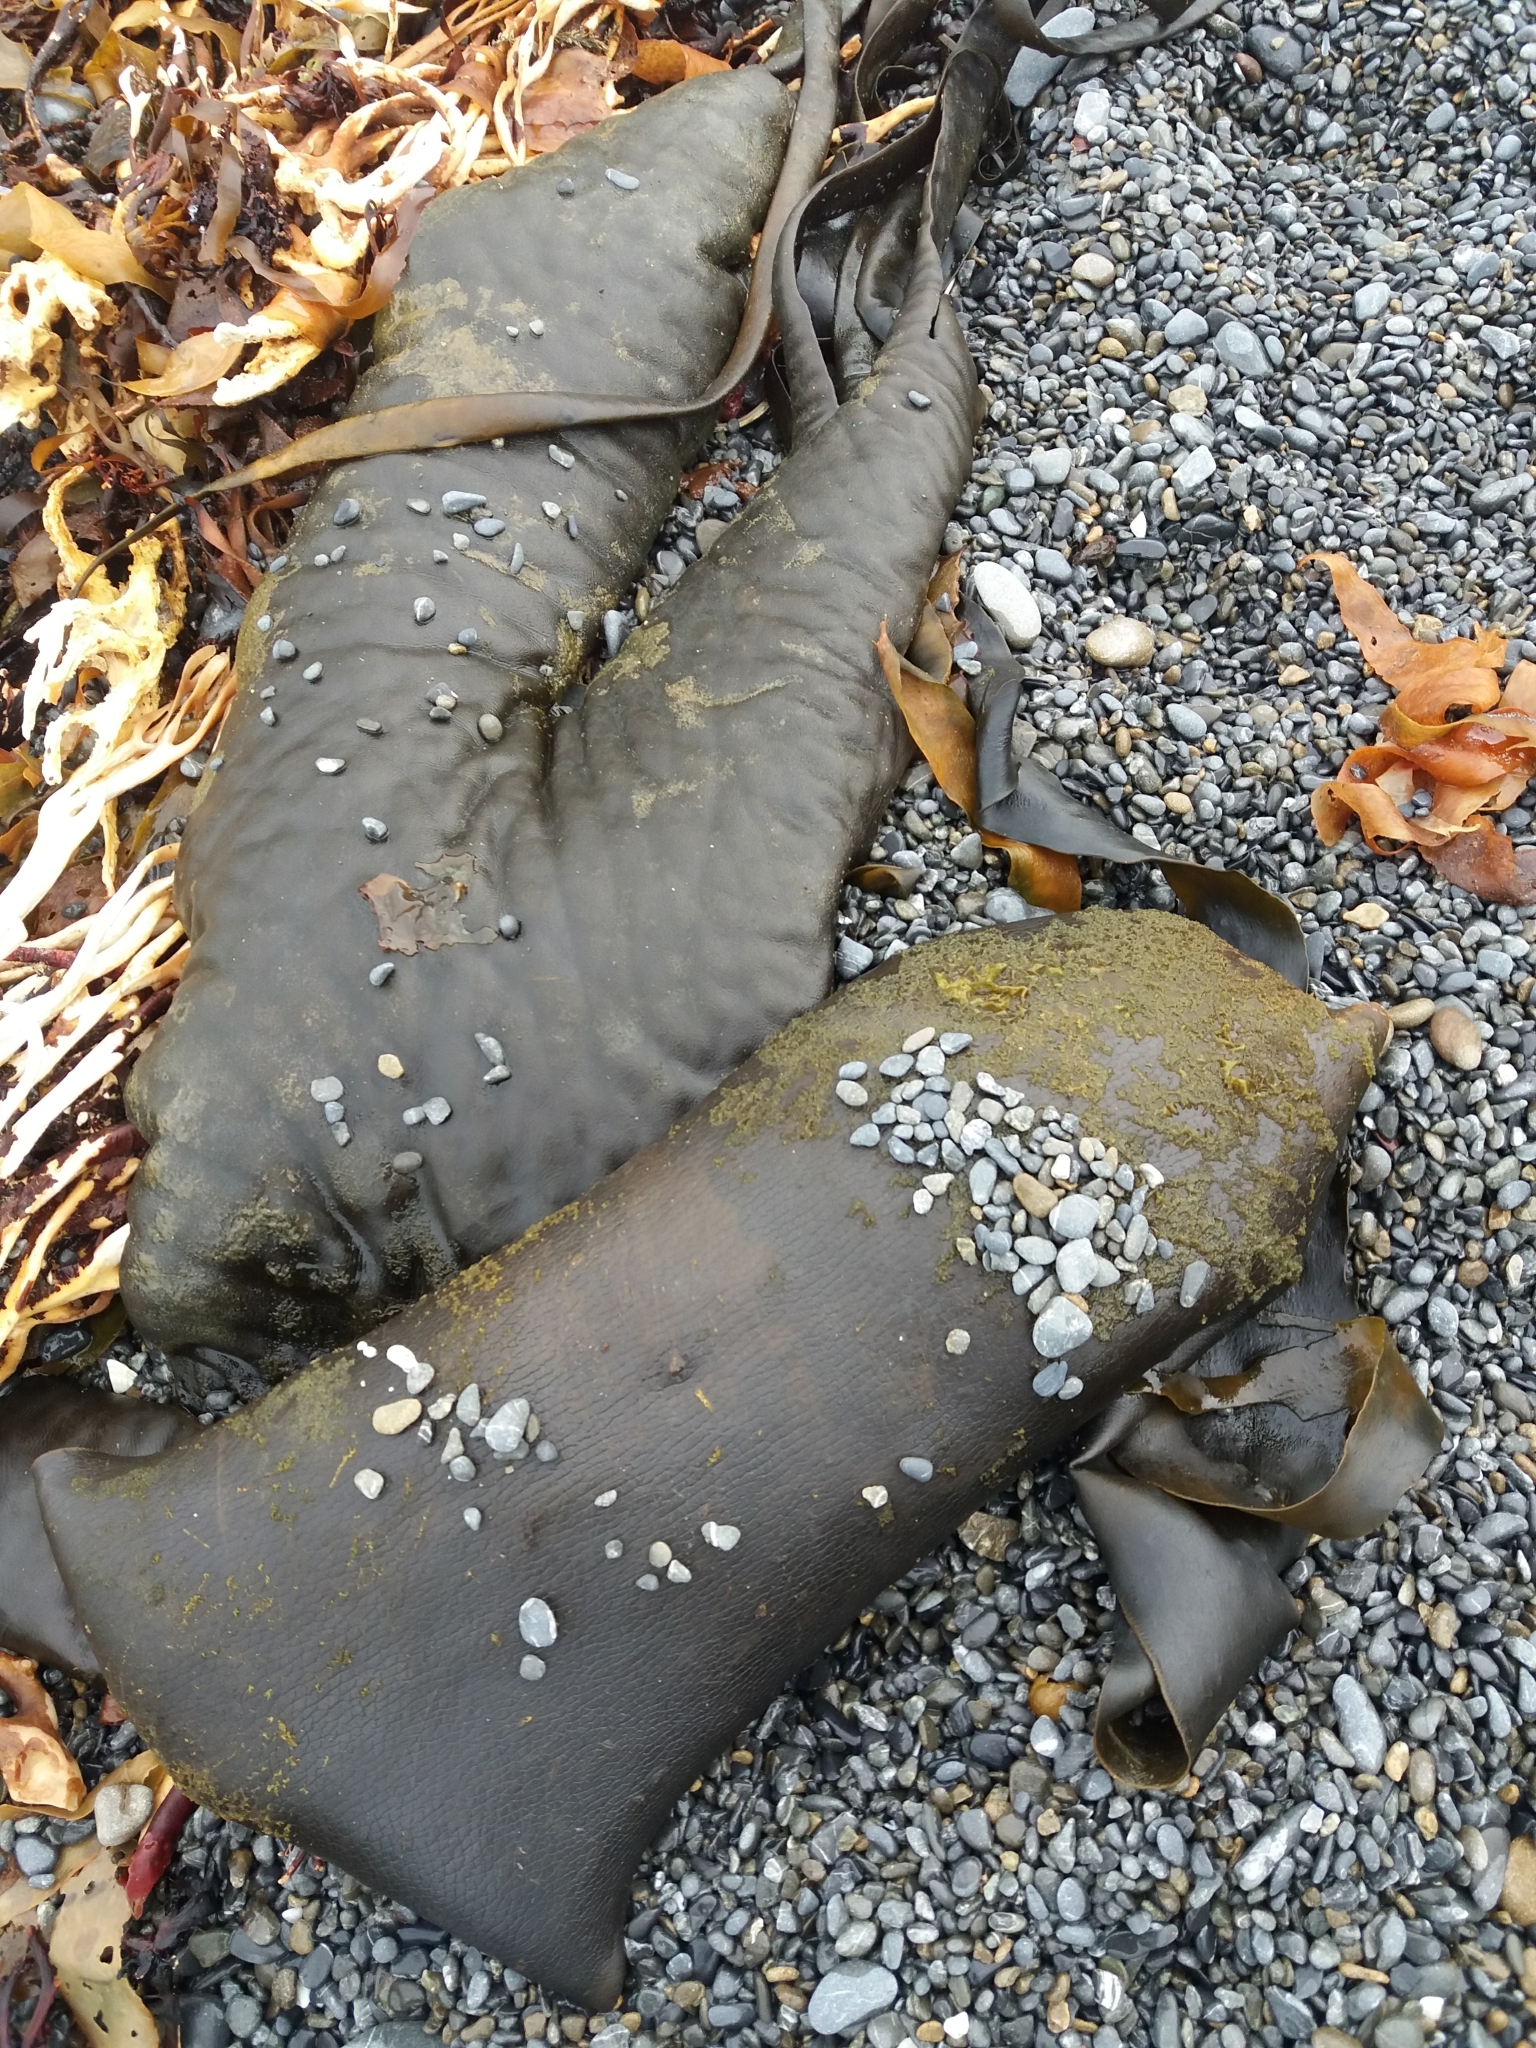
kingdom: Chromista
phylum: Ochrophyta
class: Phaeophyceae
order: Fucales
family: Durvillaeaceae
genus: Durvillaea
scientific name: Durvillaea antarctica
